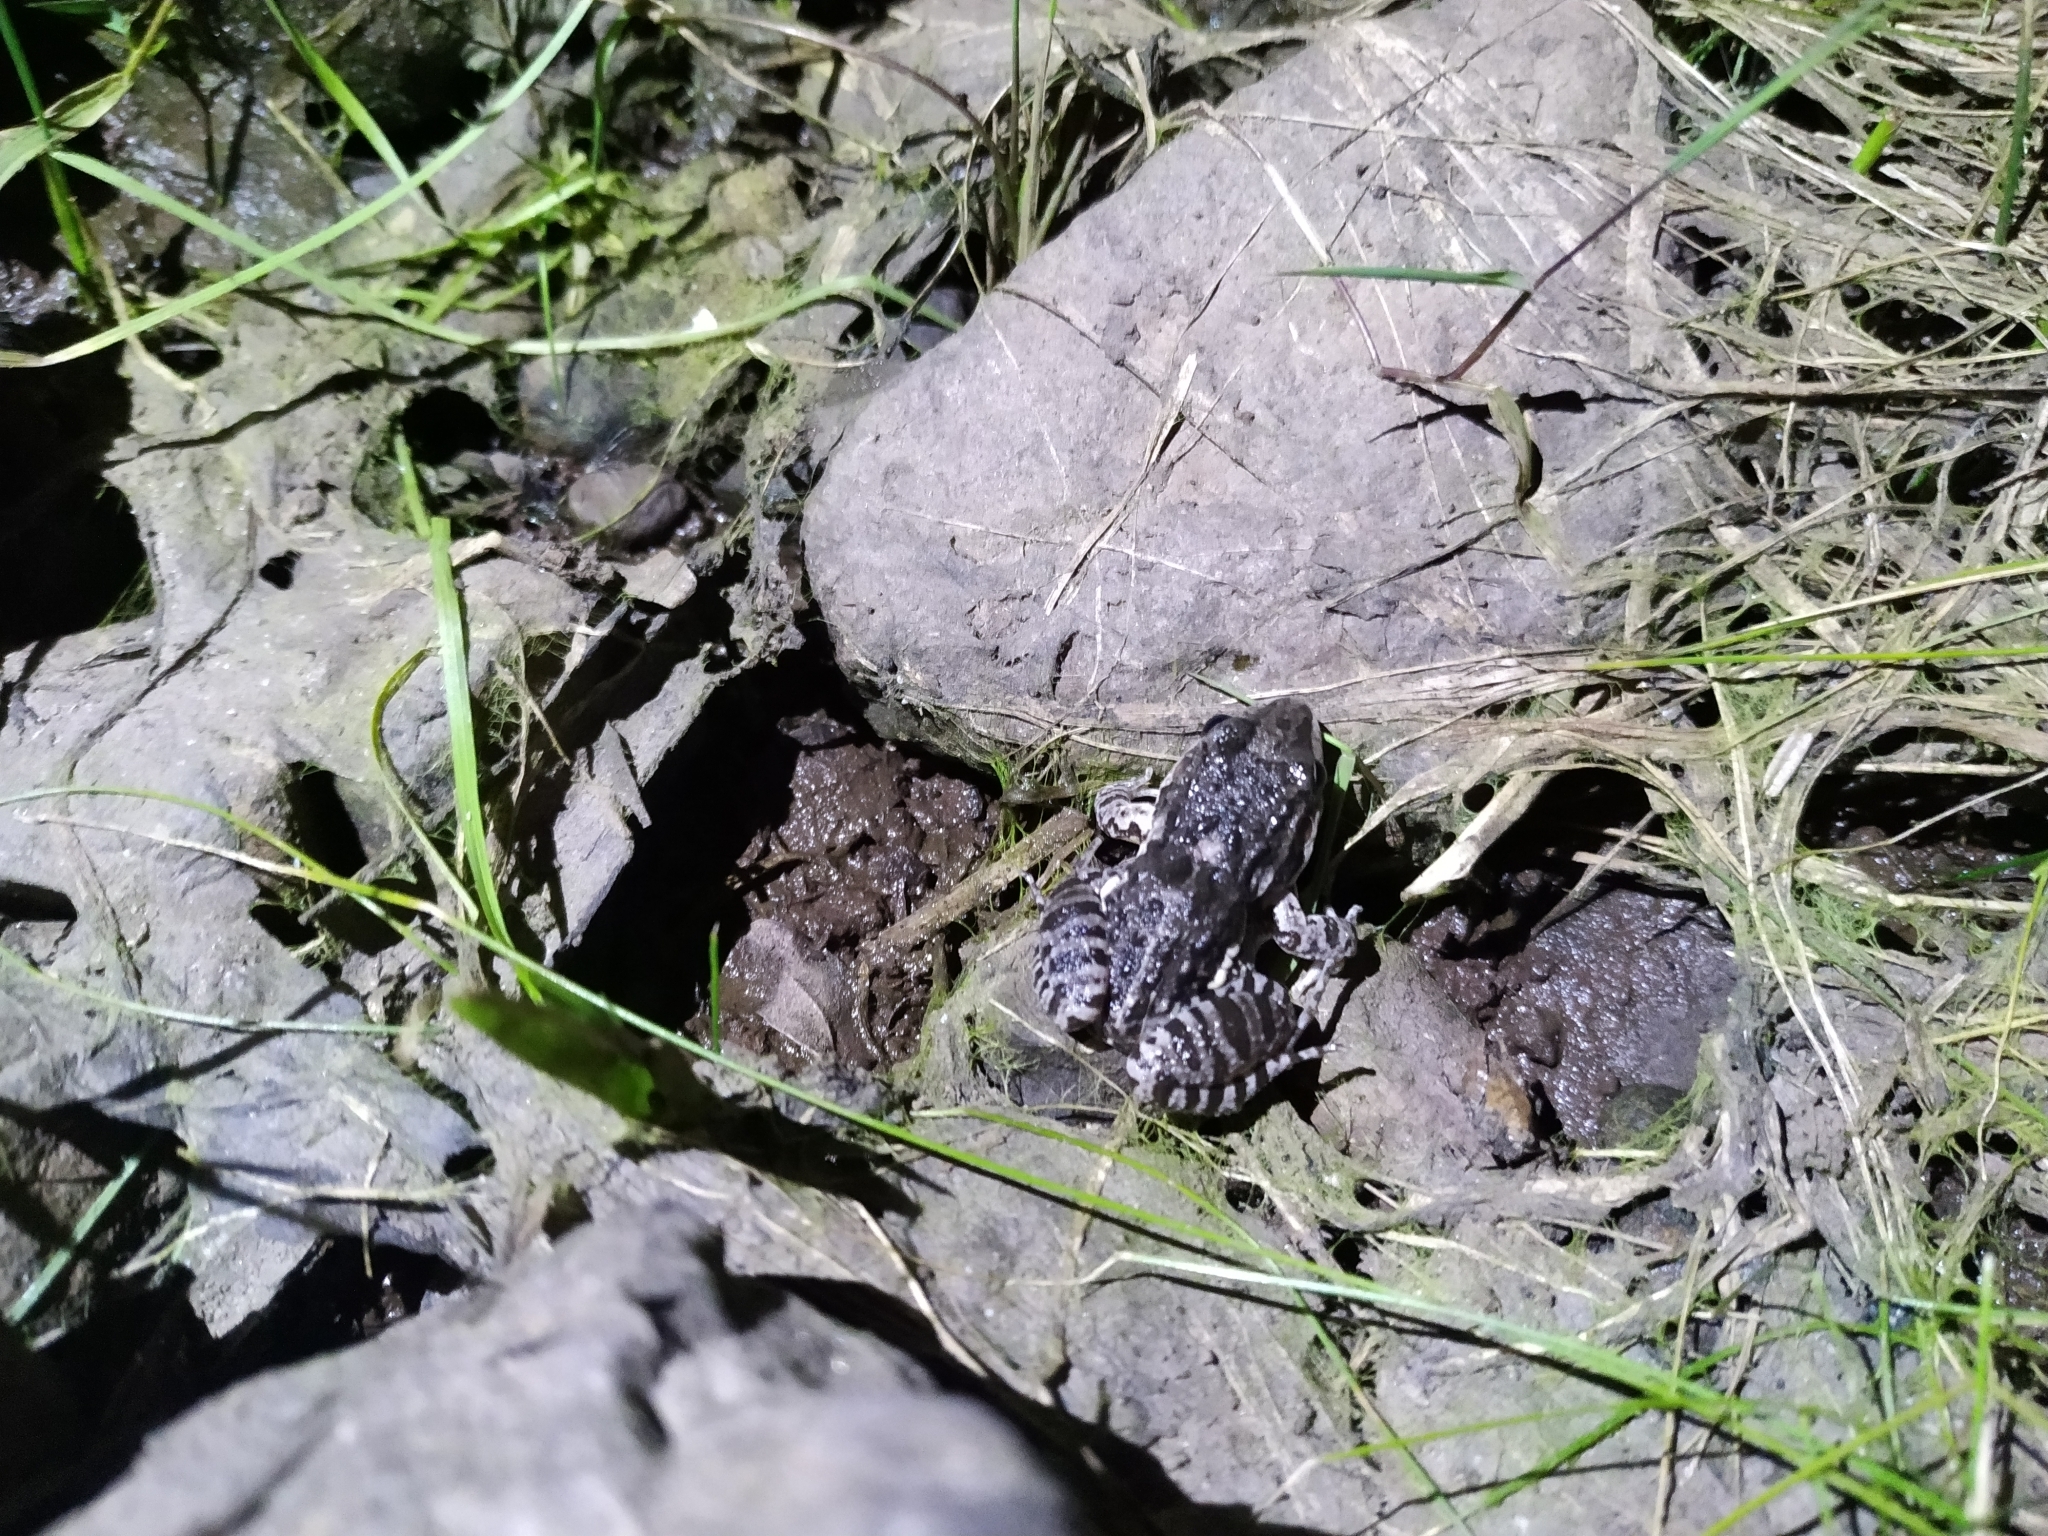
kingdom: Animalia
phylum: Chordata
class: Amphibia
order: Anura
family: Leptodactylidae
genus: Leptodactylus
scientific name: Leptodactylus latinasus
